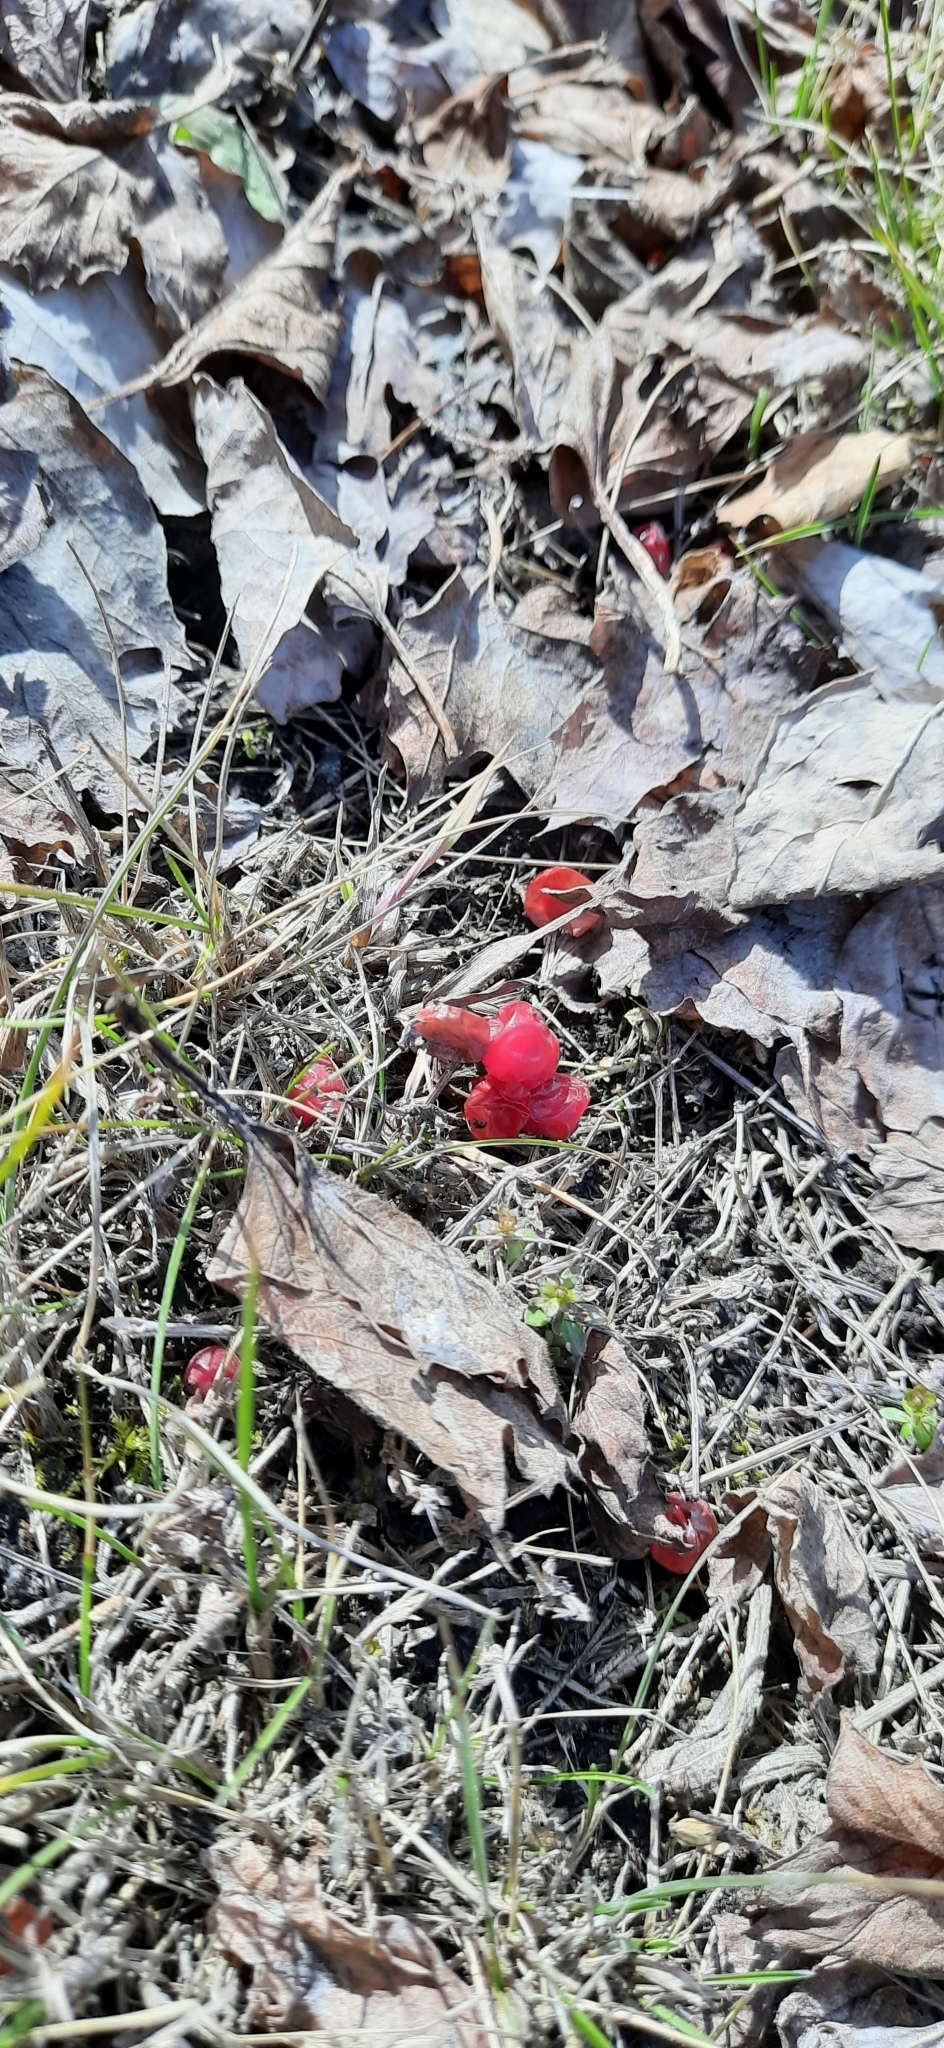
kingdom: Plantae
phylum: Tracheophyta
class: Magnoliopsida
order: Dipsacales
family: Viburnaceae
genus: Viburnum
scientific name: Viburnum opulus
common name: Guelder-rose
